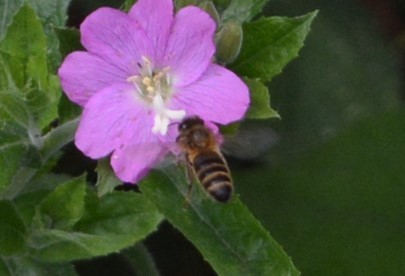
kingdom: Plantae
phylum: Tracheophyta
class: Magnoliopsida
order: Myrtales
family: Onagraceae
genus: Epilobium
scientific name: Epilobium hirsutum
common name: Great willowherb
